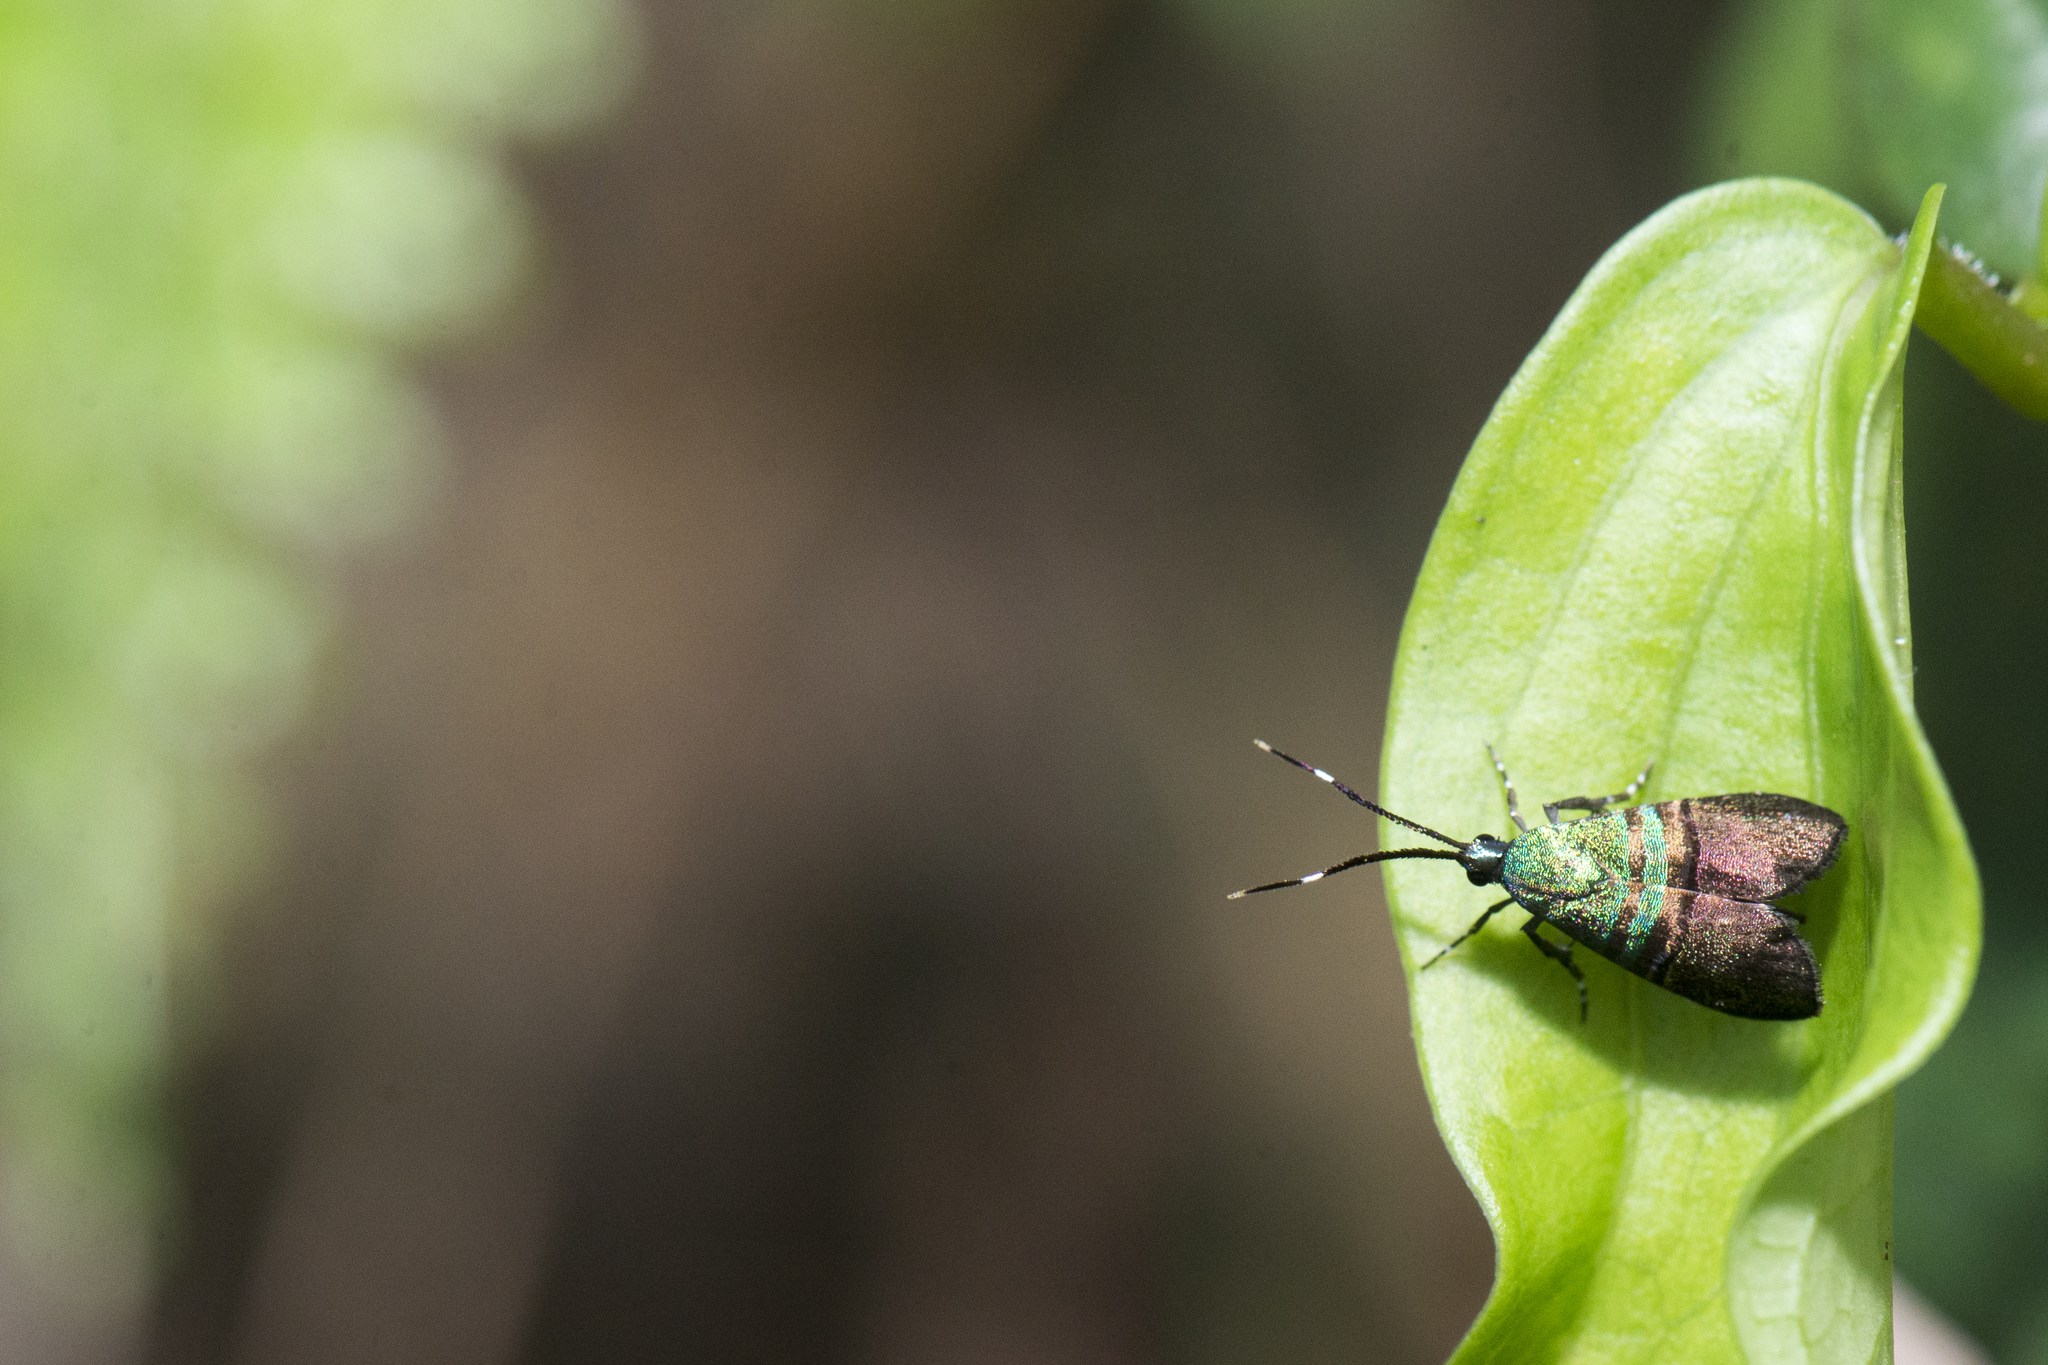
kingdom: Animalia
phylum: Arthropoda
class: Insecta
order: Lepidoptera
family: Choreutidae
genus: Saptha
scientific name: Saptha pretiosa
